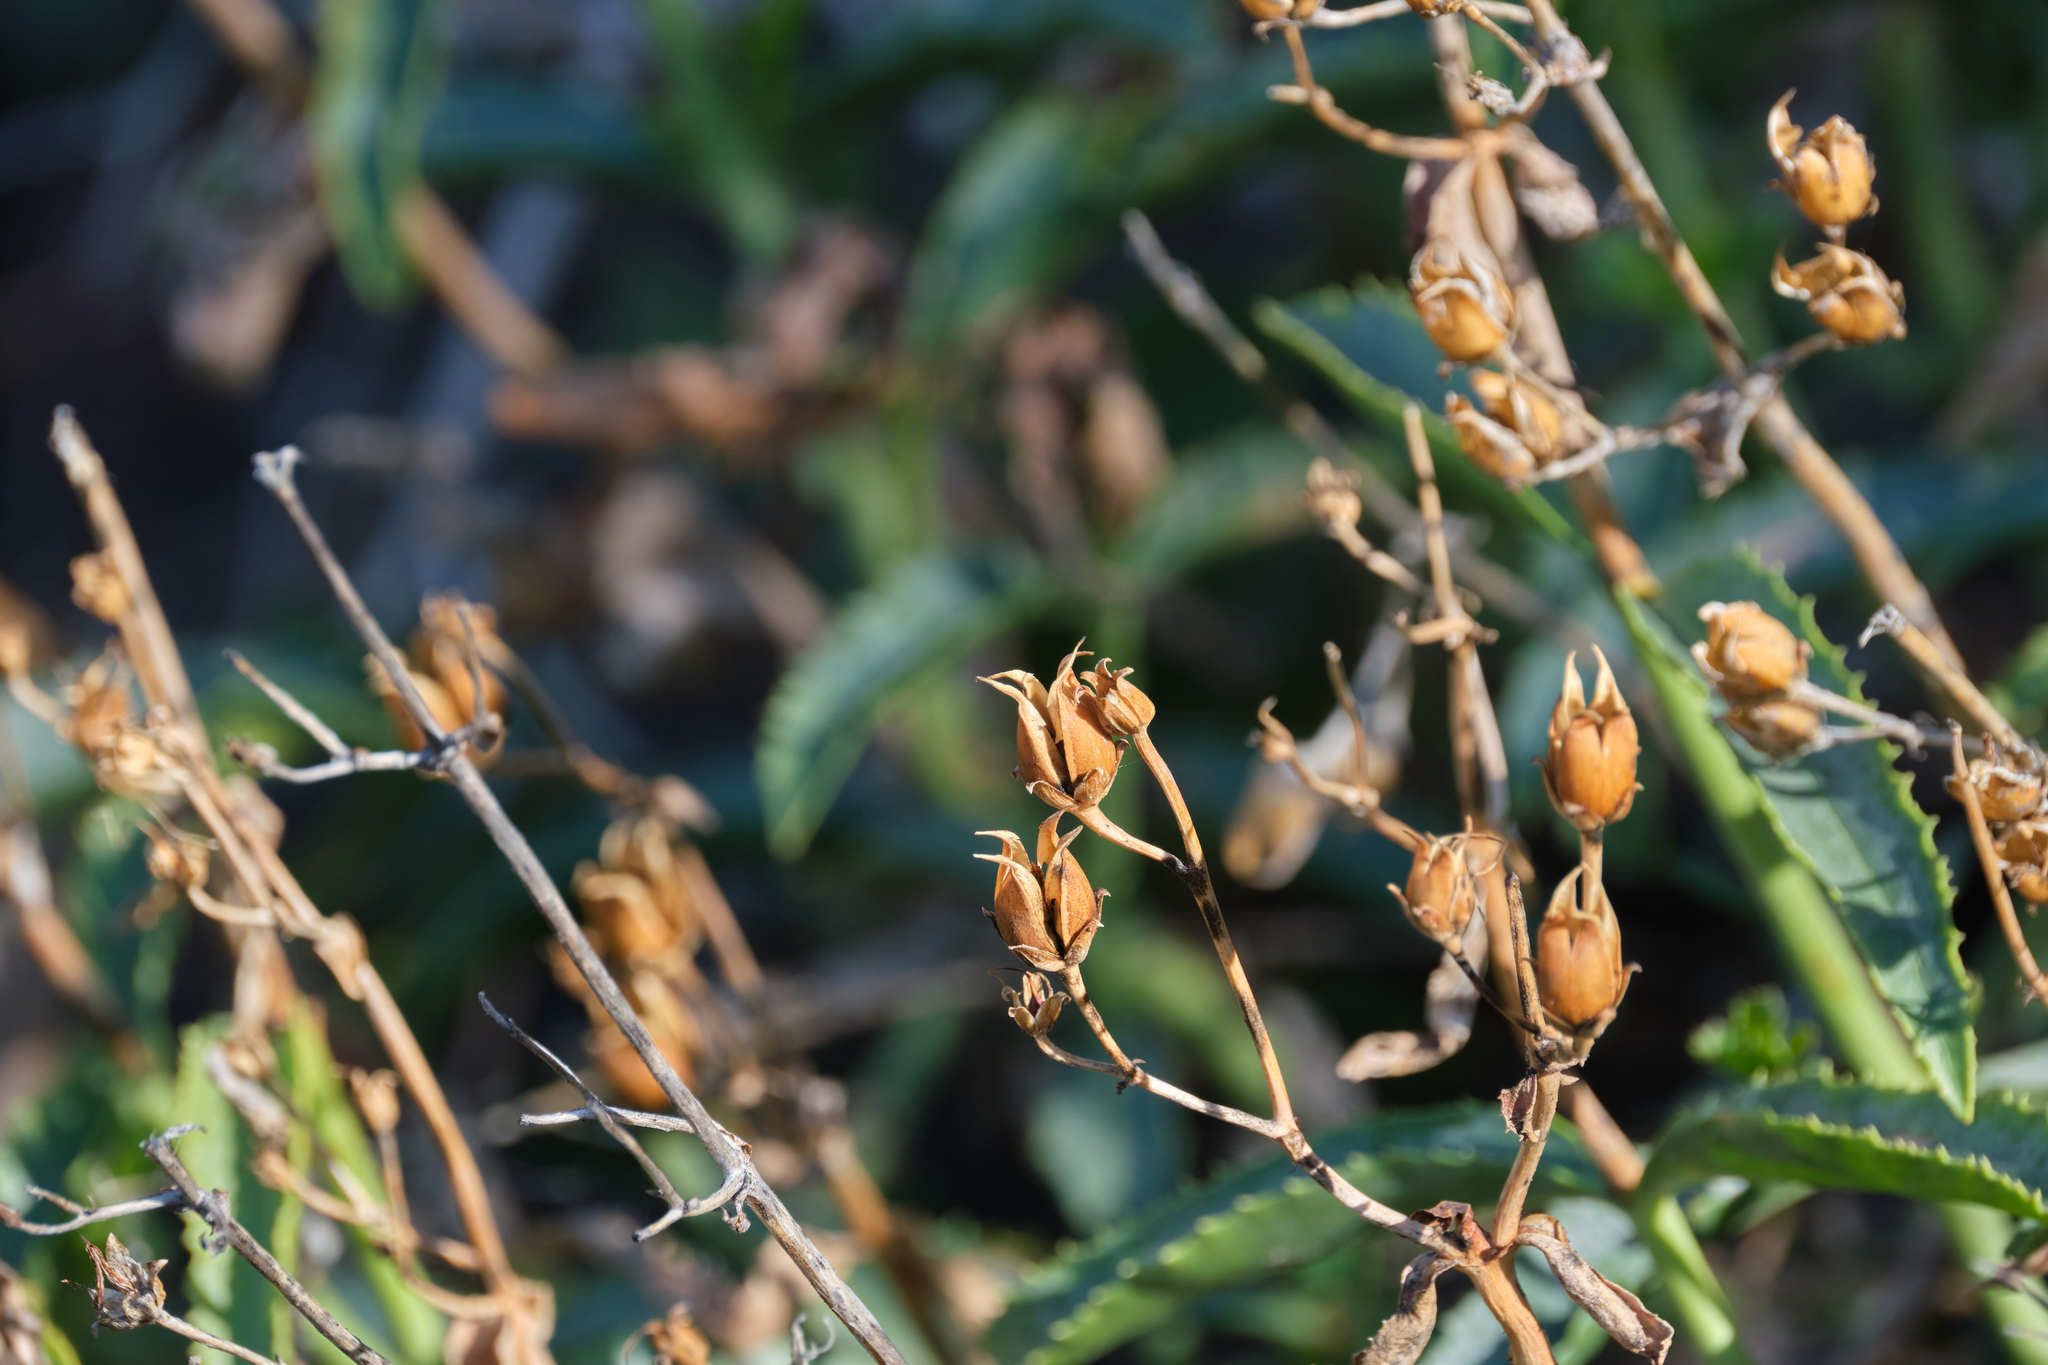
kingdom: Plantae
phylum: Tracheophyta
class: Magnoliopsida
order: Lamiales
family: Plantaginaceae
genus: Penstemon
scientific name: Penstemon grinnellii
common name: Grinnell's beardtongue
